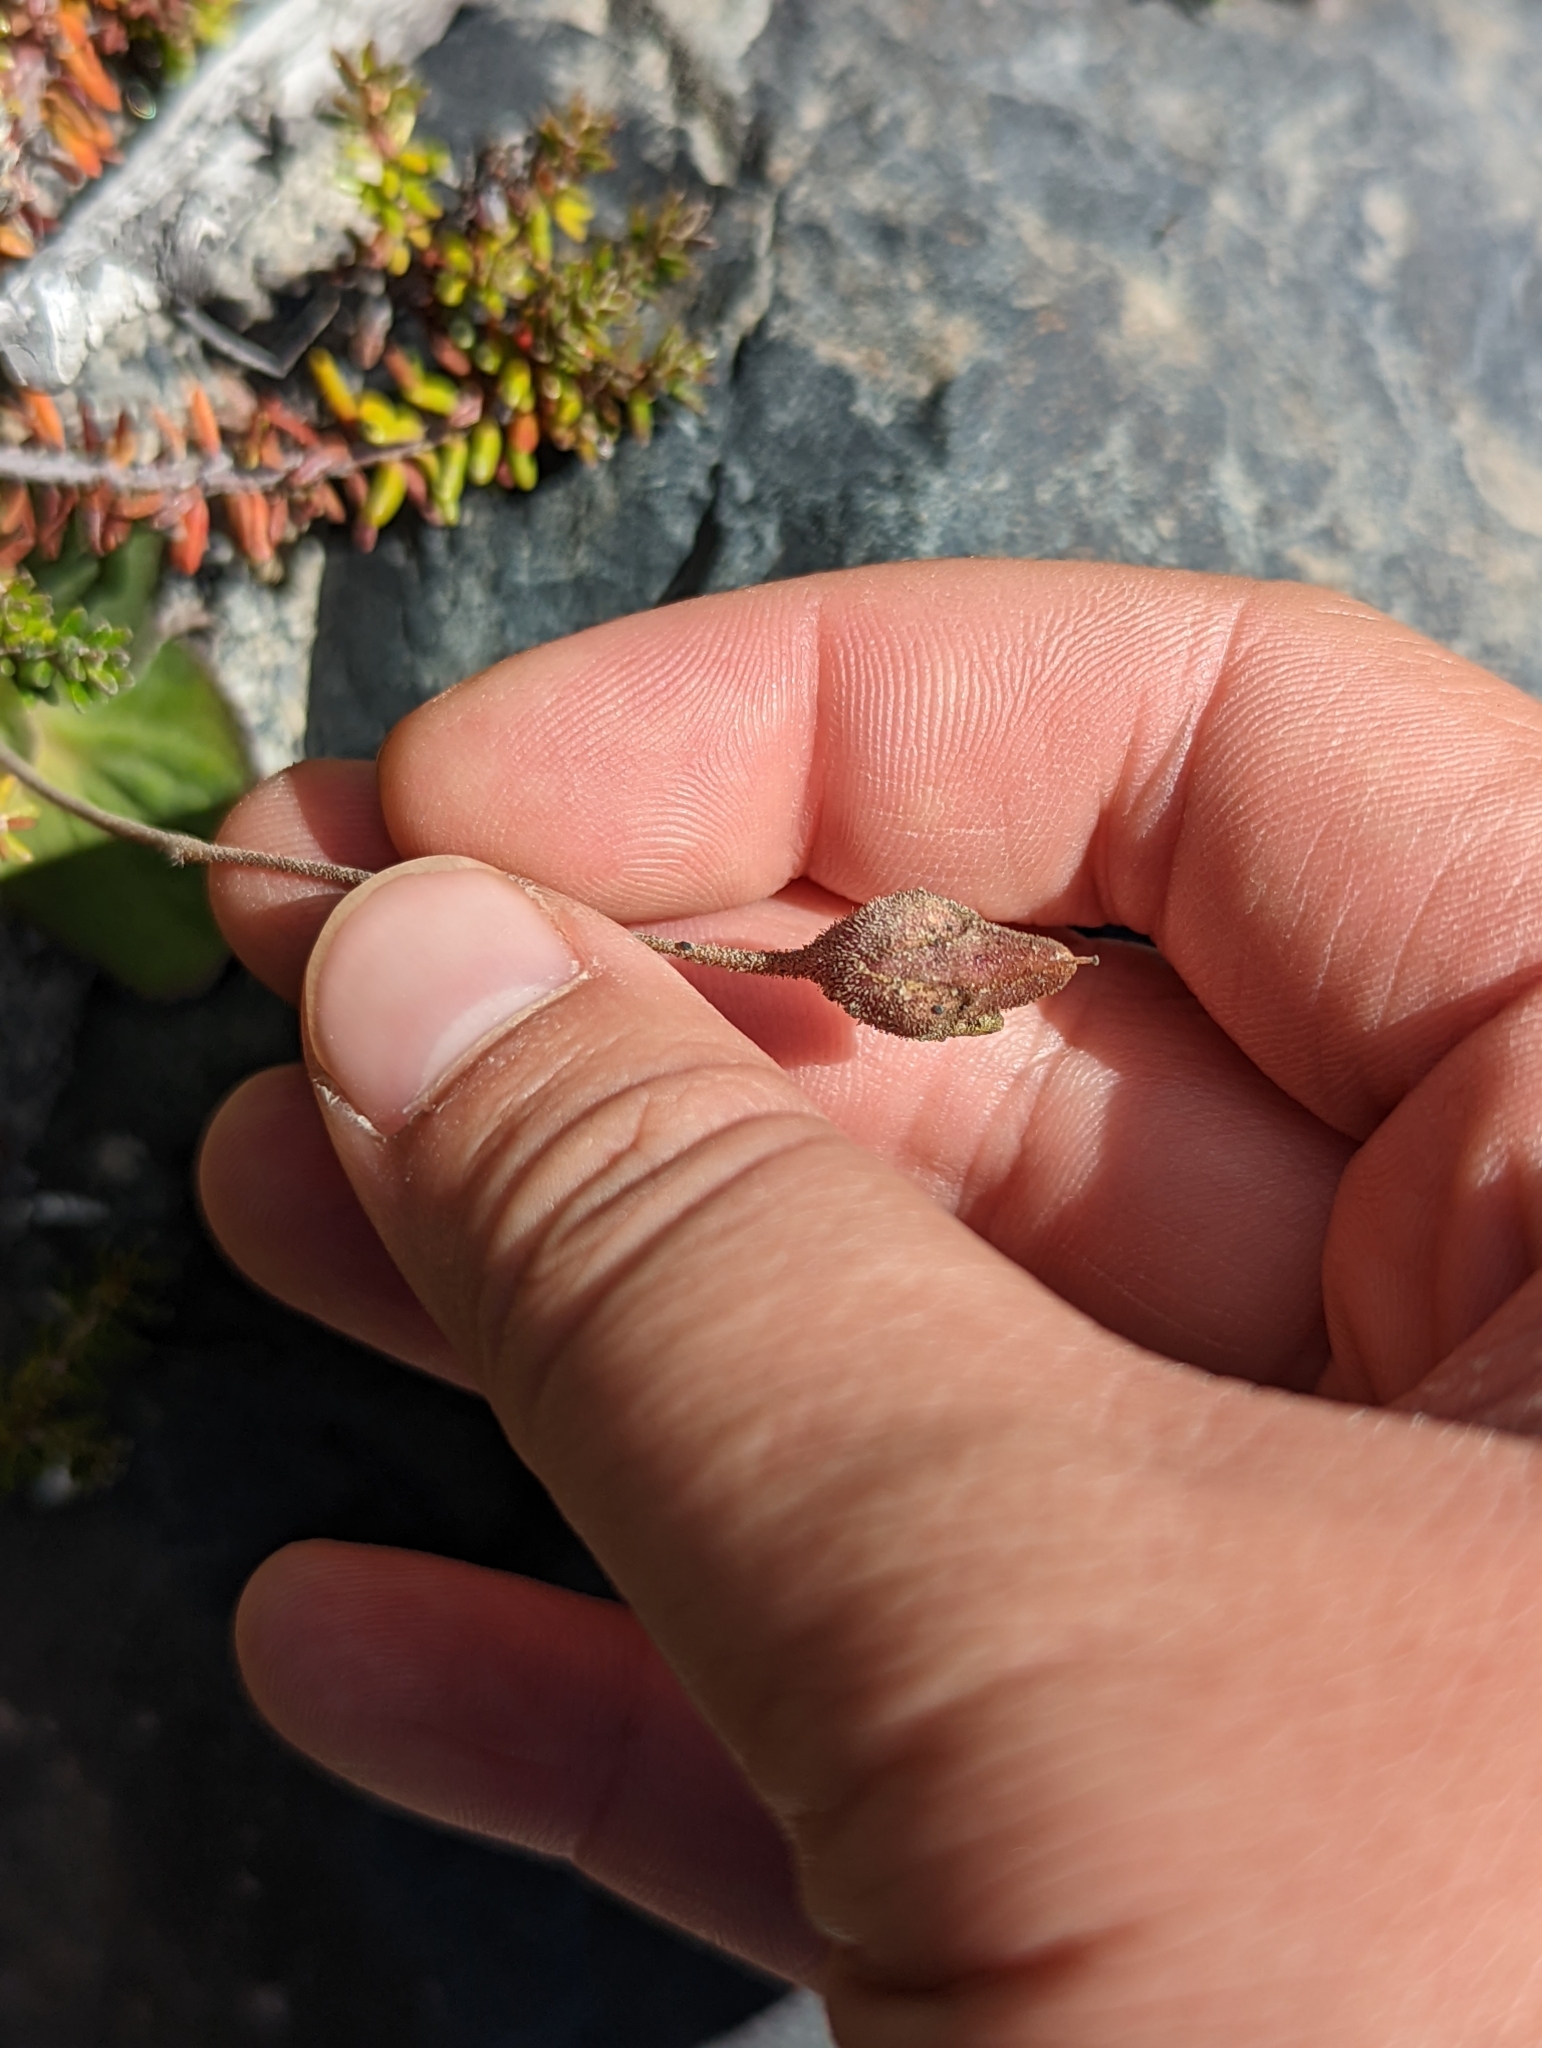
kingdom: Plantae
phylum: Tracheophyta
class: Magnoliopsida
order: Lamiales
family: Calceolariaceae
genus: Calceolaria
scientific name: Calceolaria biflora
